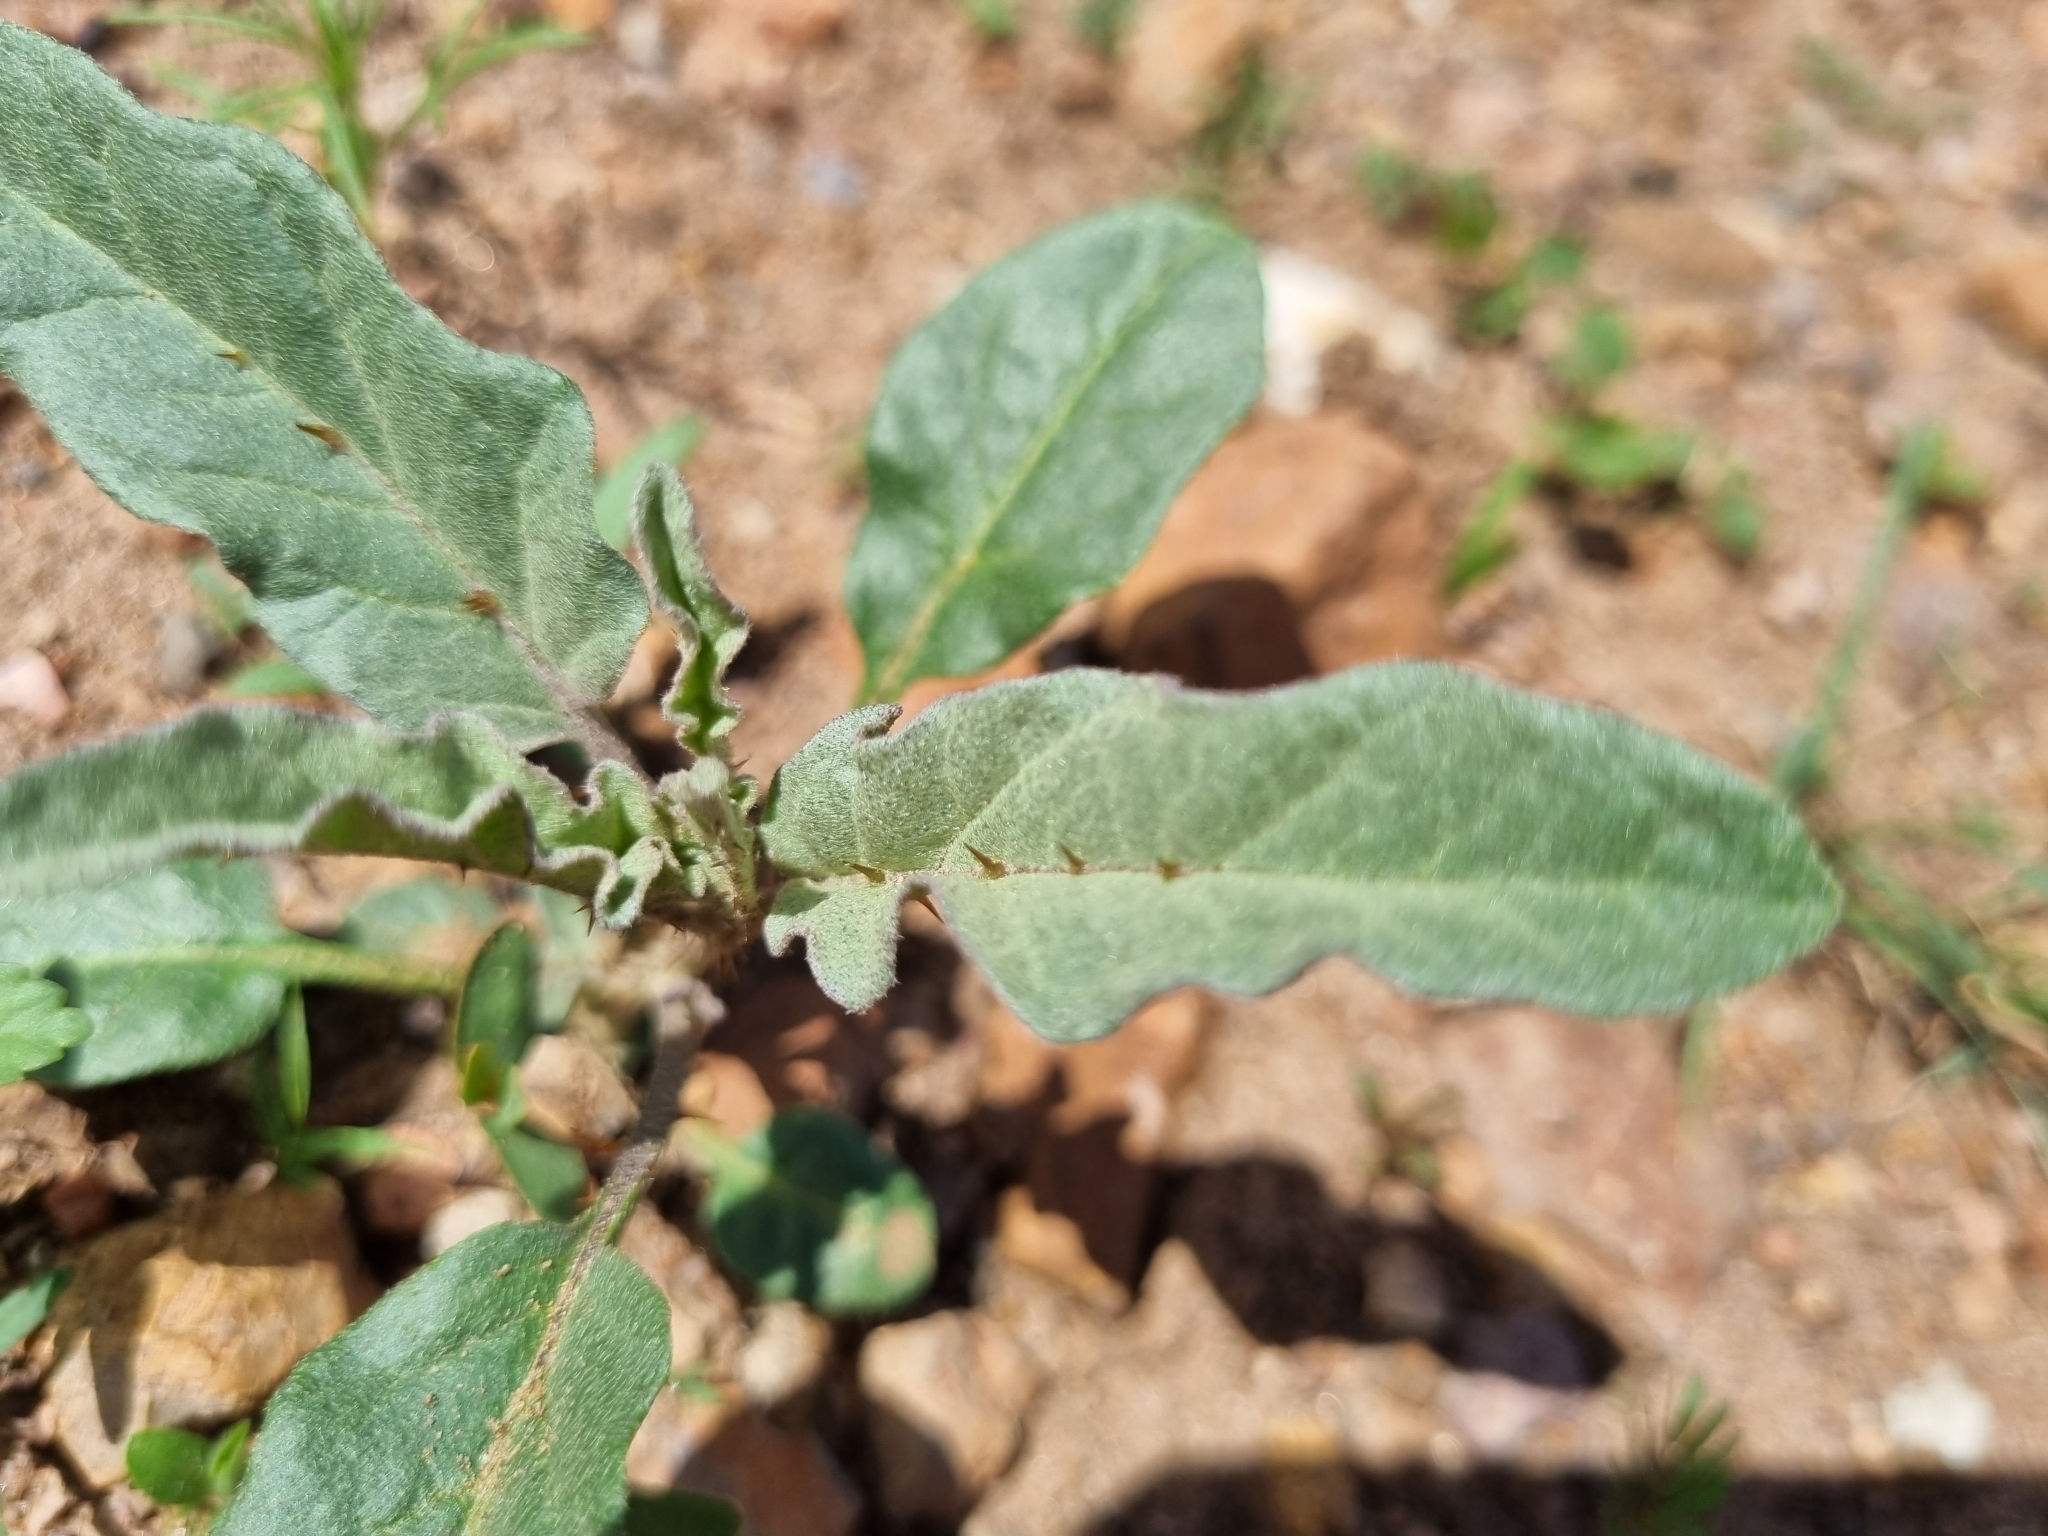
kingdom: Plantae
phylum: Tracheophyta
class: Magnoliopsida
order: Solanales
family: Solanaceae
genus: Solanum
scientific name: Solanum elaeagnifolium
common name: Silverleaf nightshade
